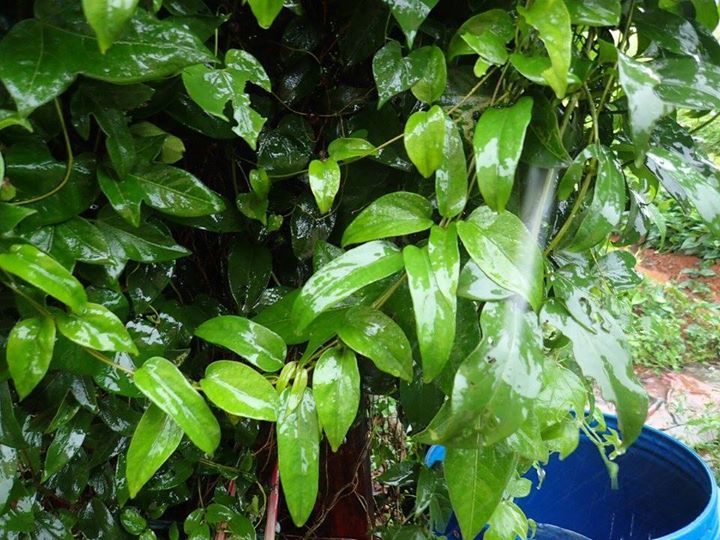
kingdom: Plantae
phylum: Tracheophyta
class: Magnoliopsida
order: Gentianales
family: Rubiaceae
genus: Paederia
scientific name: Paederia foetida
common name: Stinkvine
